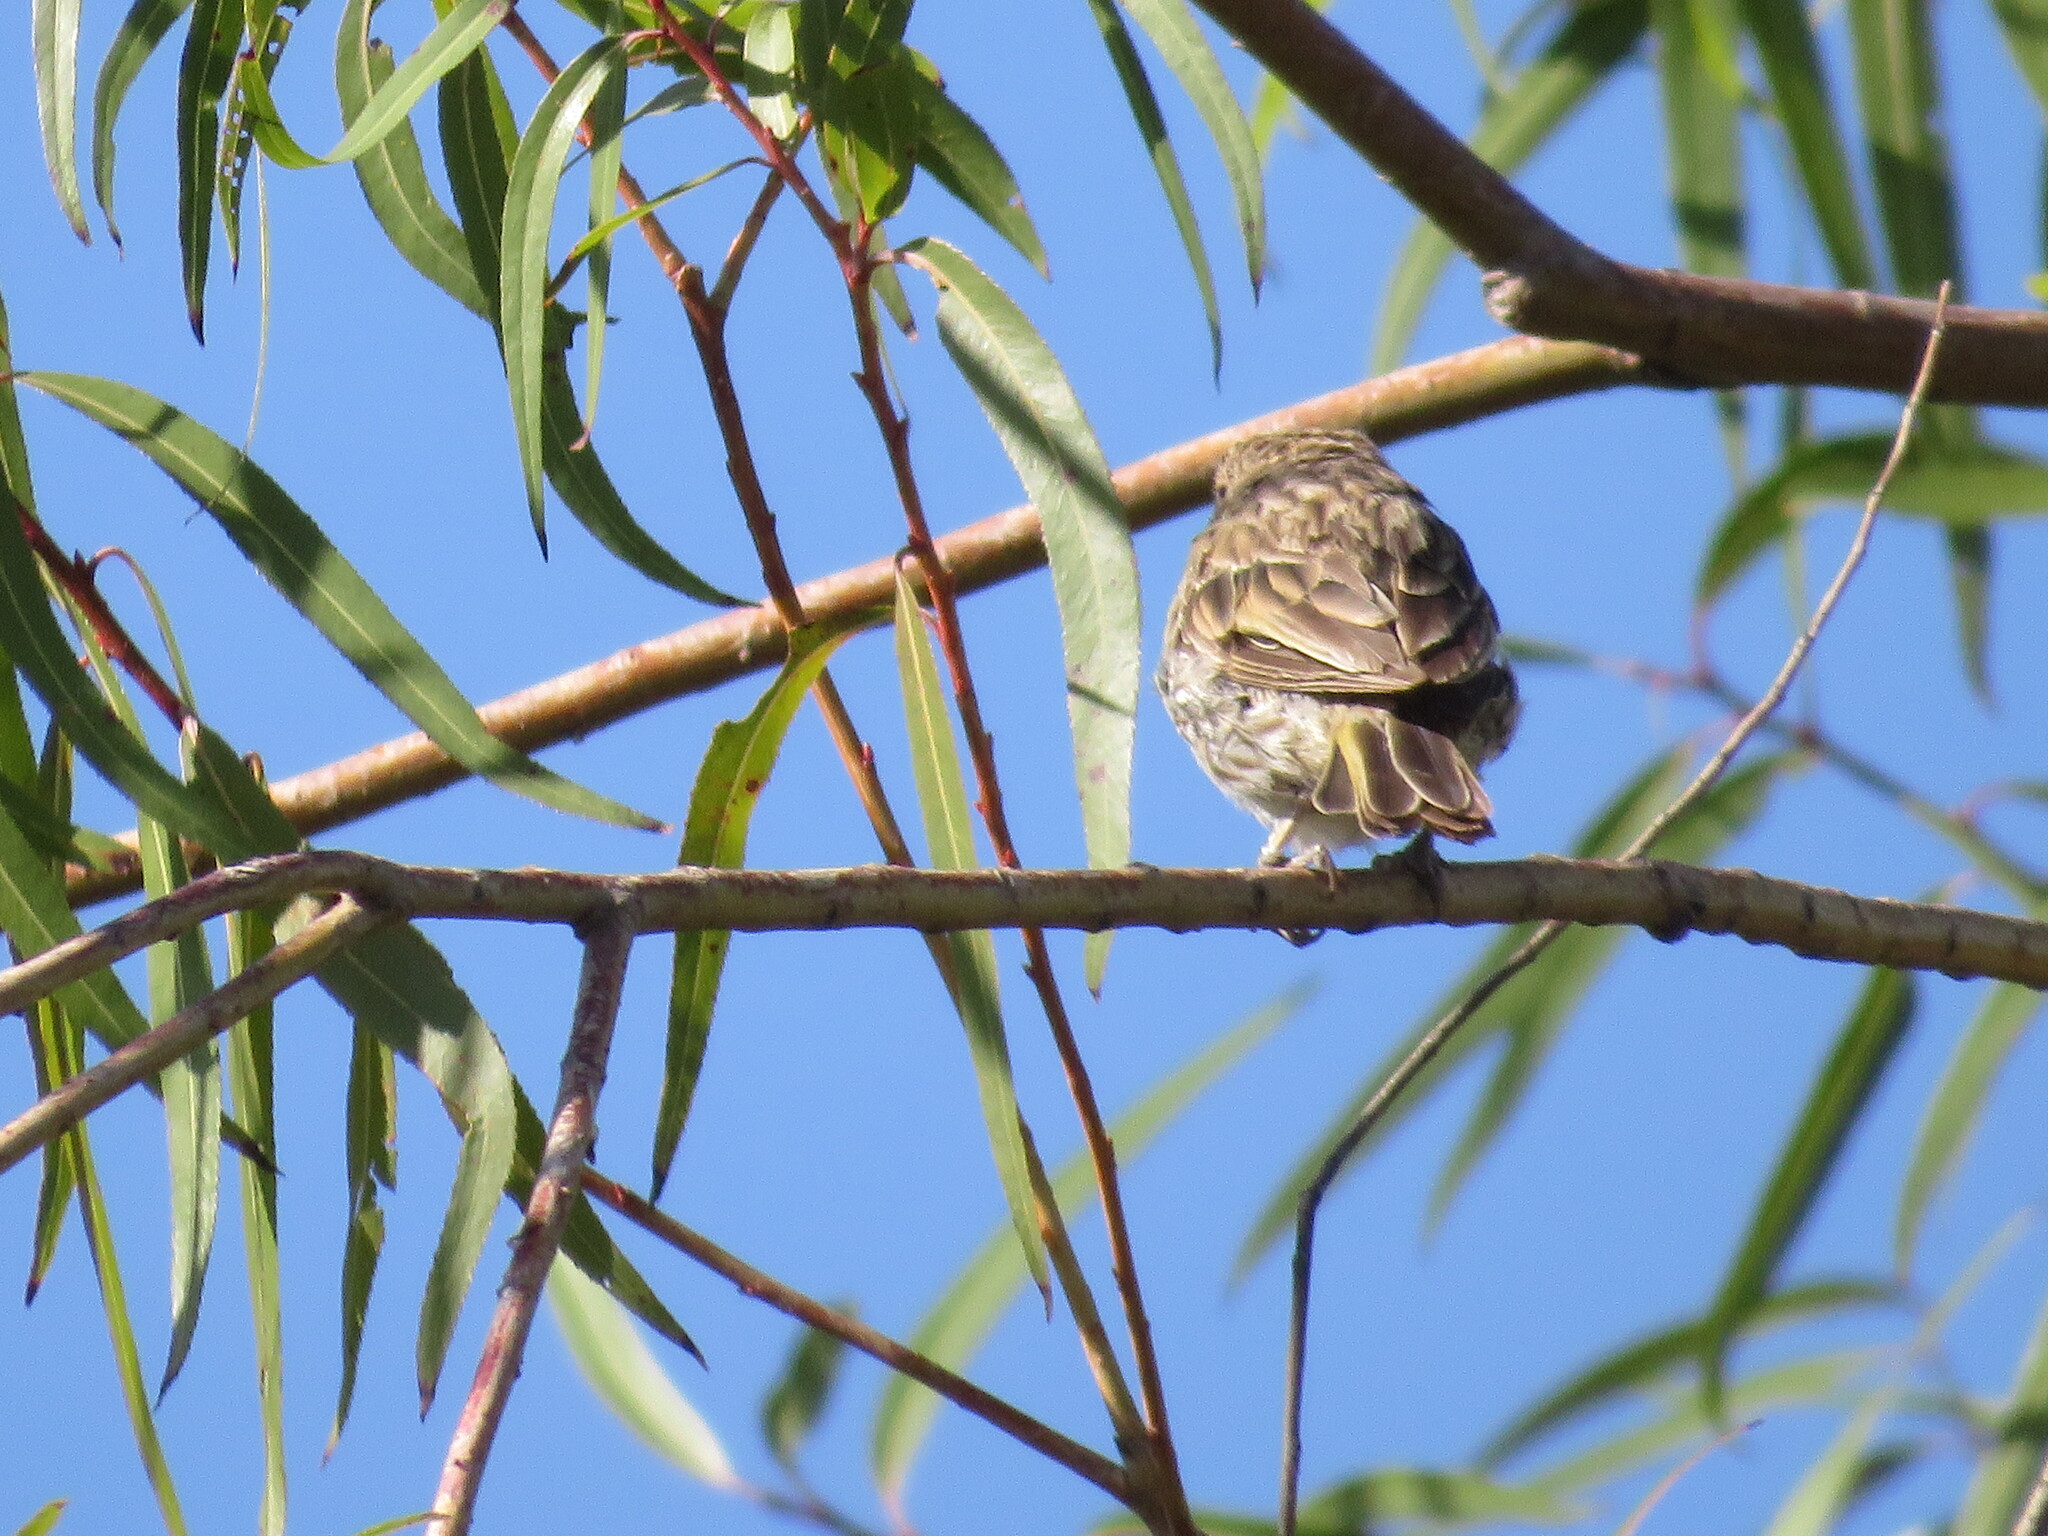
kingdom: Animalia
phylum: Chordata
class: Aves
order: Passeriformes
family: Thraupidae
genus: Sicalis
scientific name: Sicalis flaveola
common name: Saffron finch
